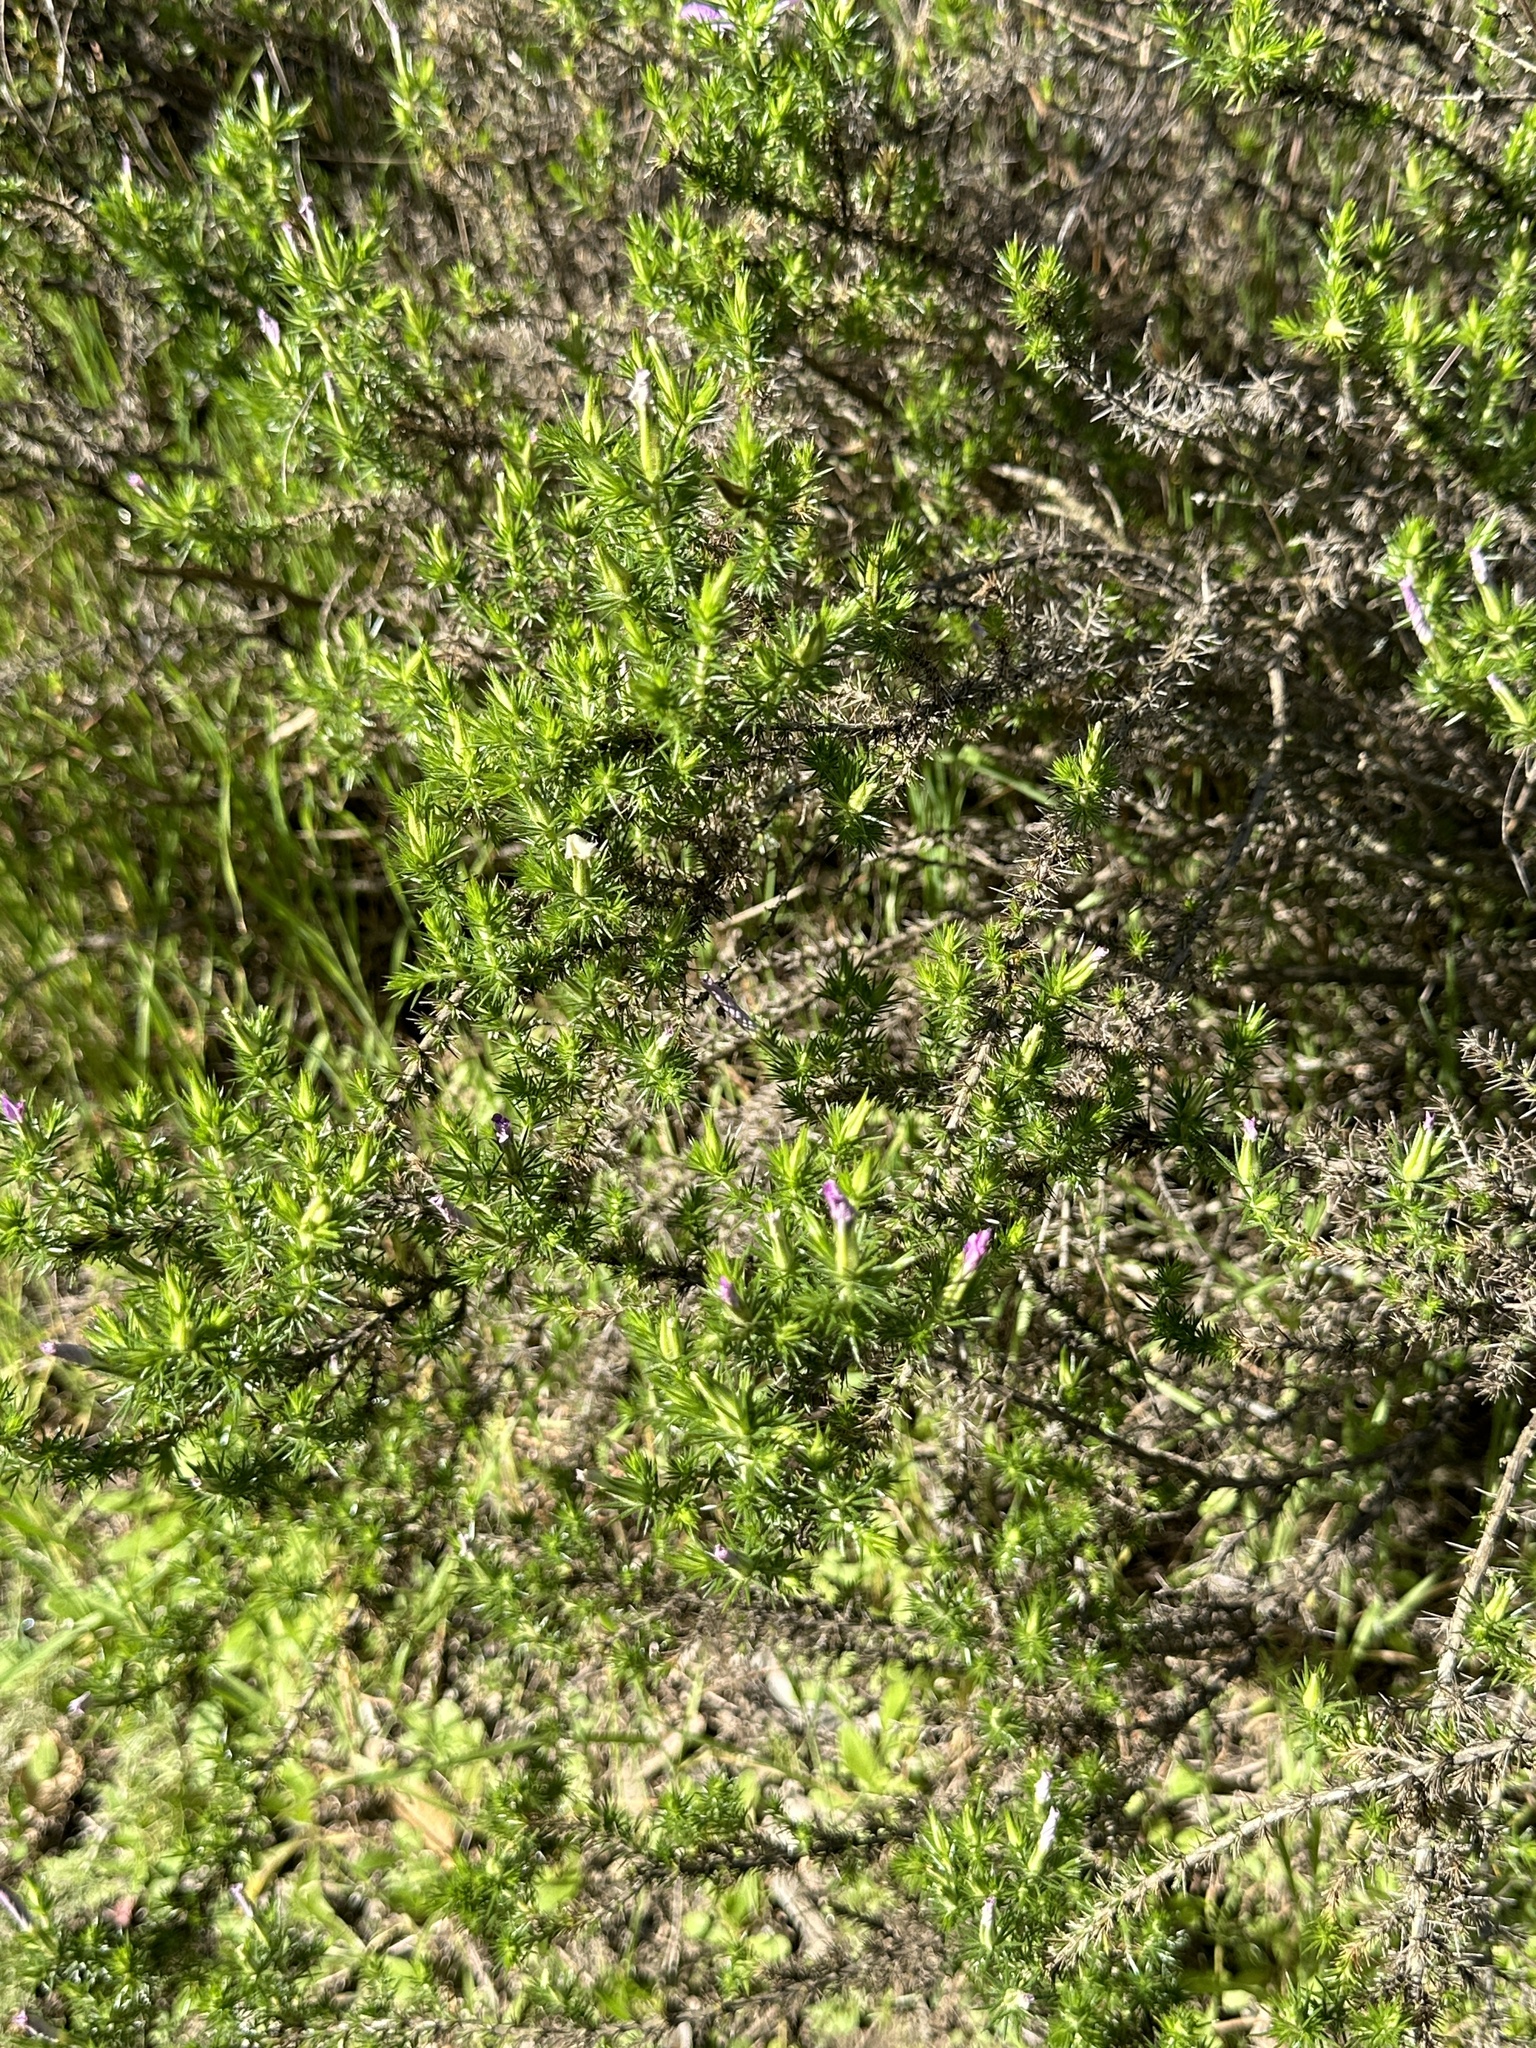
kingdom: Plantae
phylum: Tracheophyta
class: Magnoliopsida
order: Ericales
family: Polemoniaceae
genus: Linanthus
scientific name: Linanthus californicus
